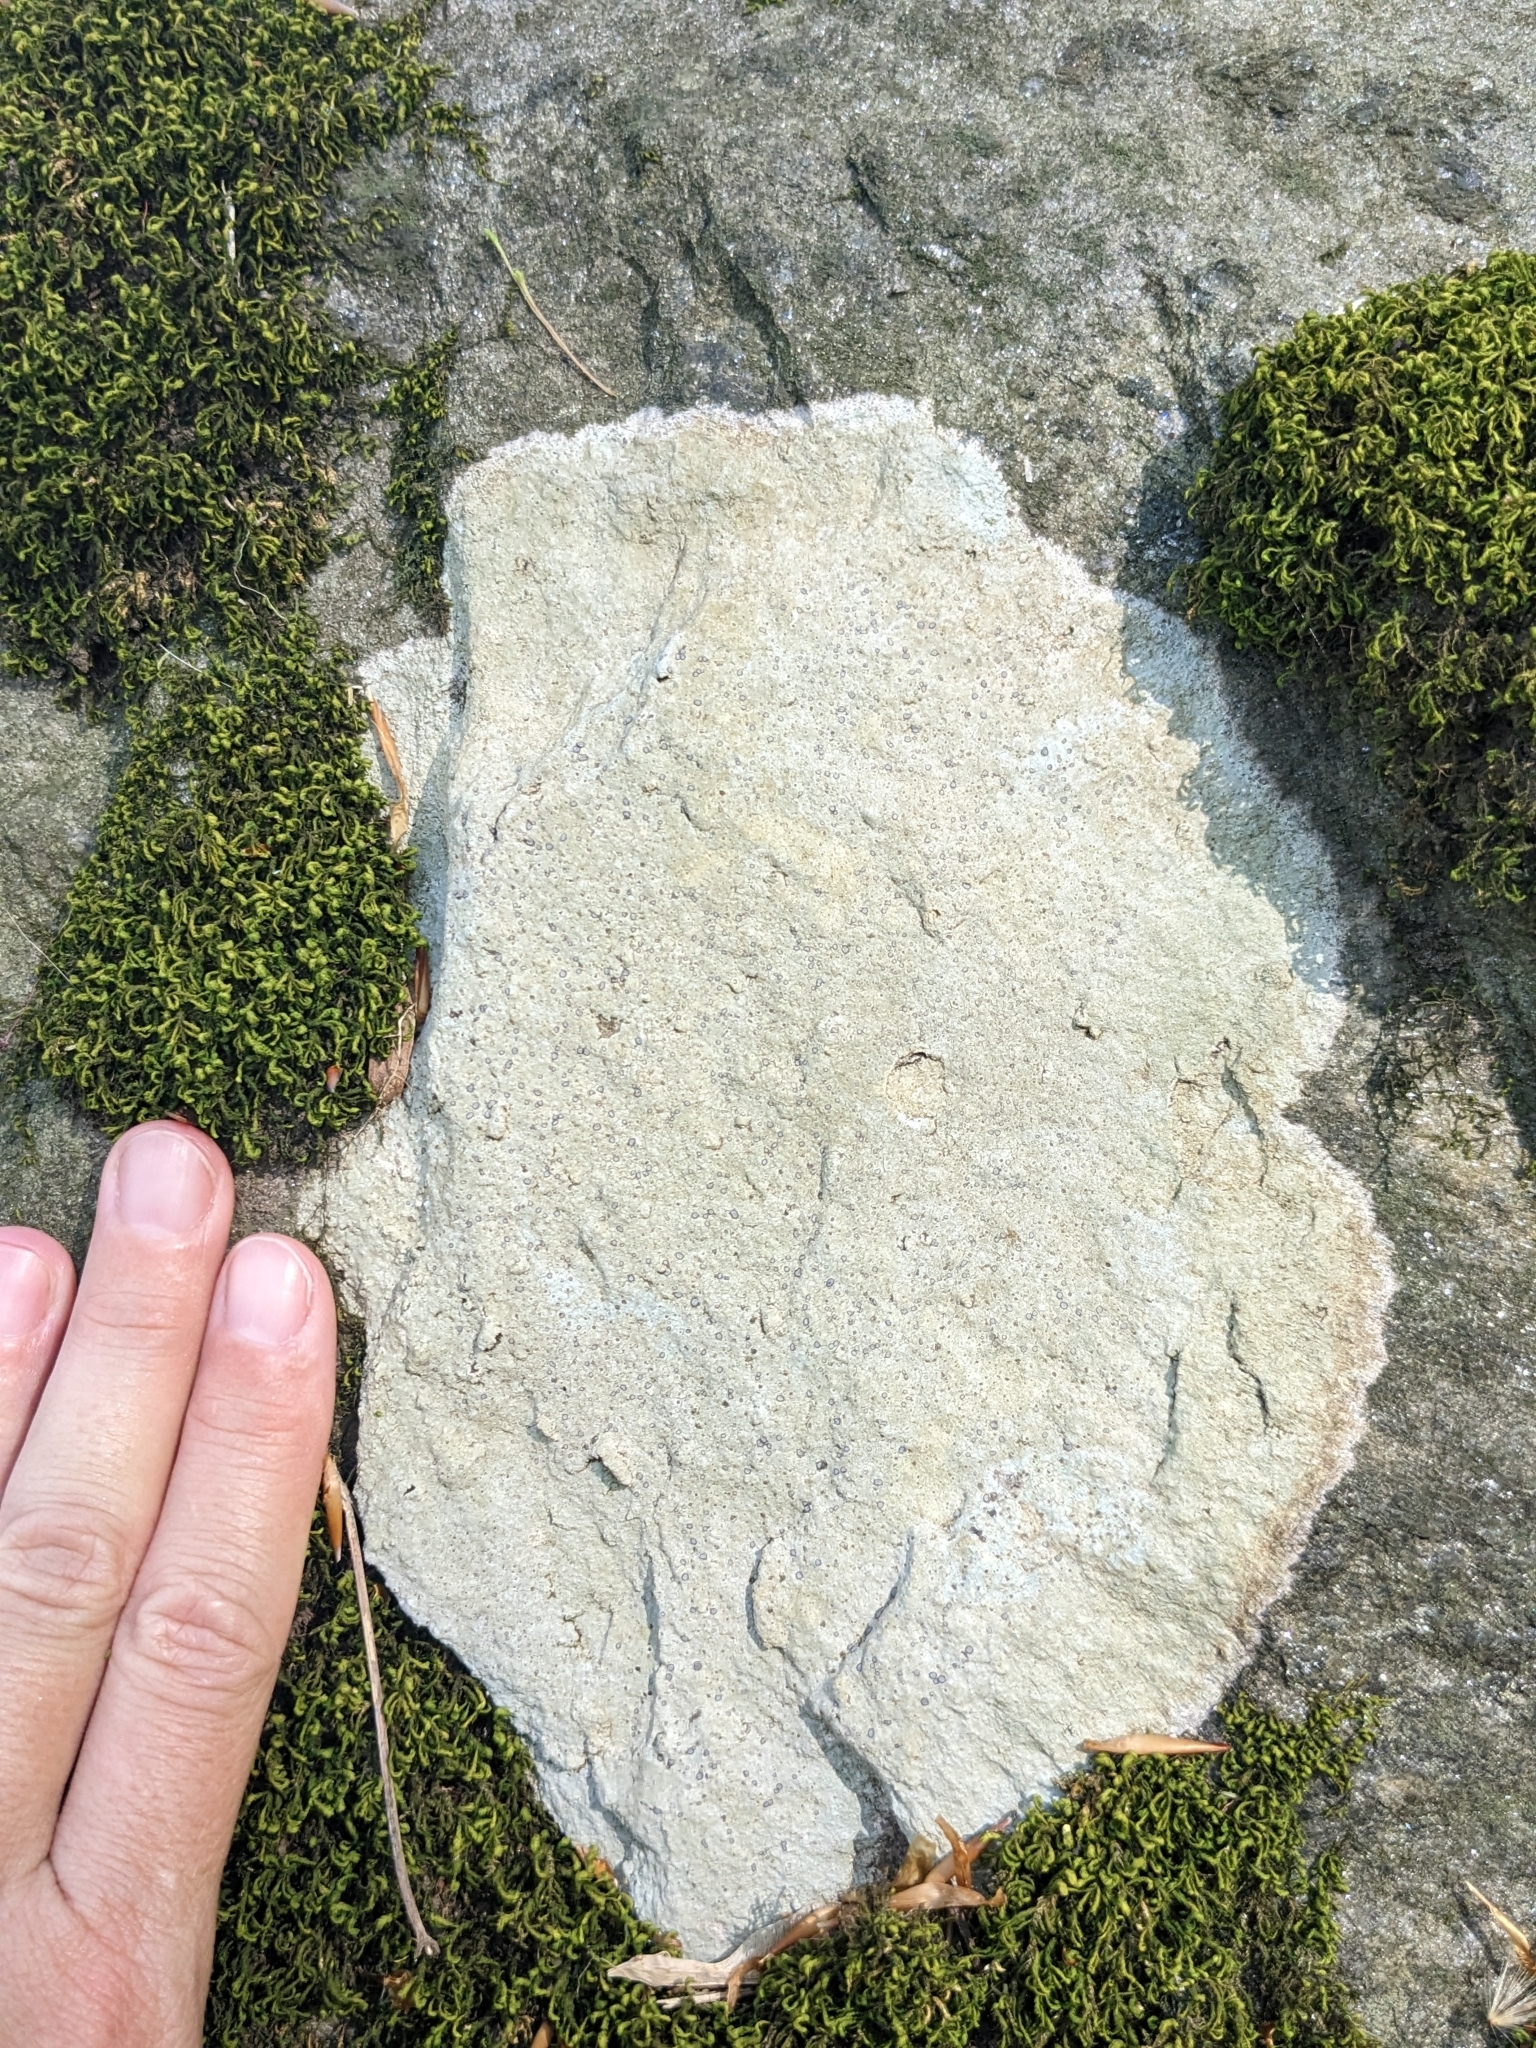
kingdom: Fungi
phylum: Ascomycota
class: Lecanoromycetes
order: Lecideales
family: Lecideaceae
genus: Porpidia
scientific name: Porpidia albocaerulescens
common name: Smokey-eyed boulder lichen
